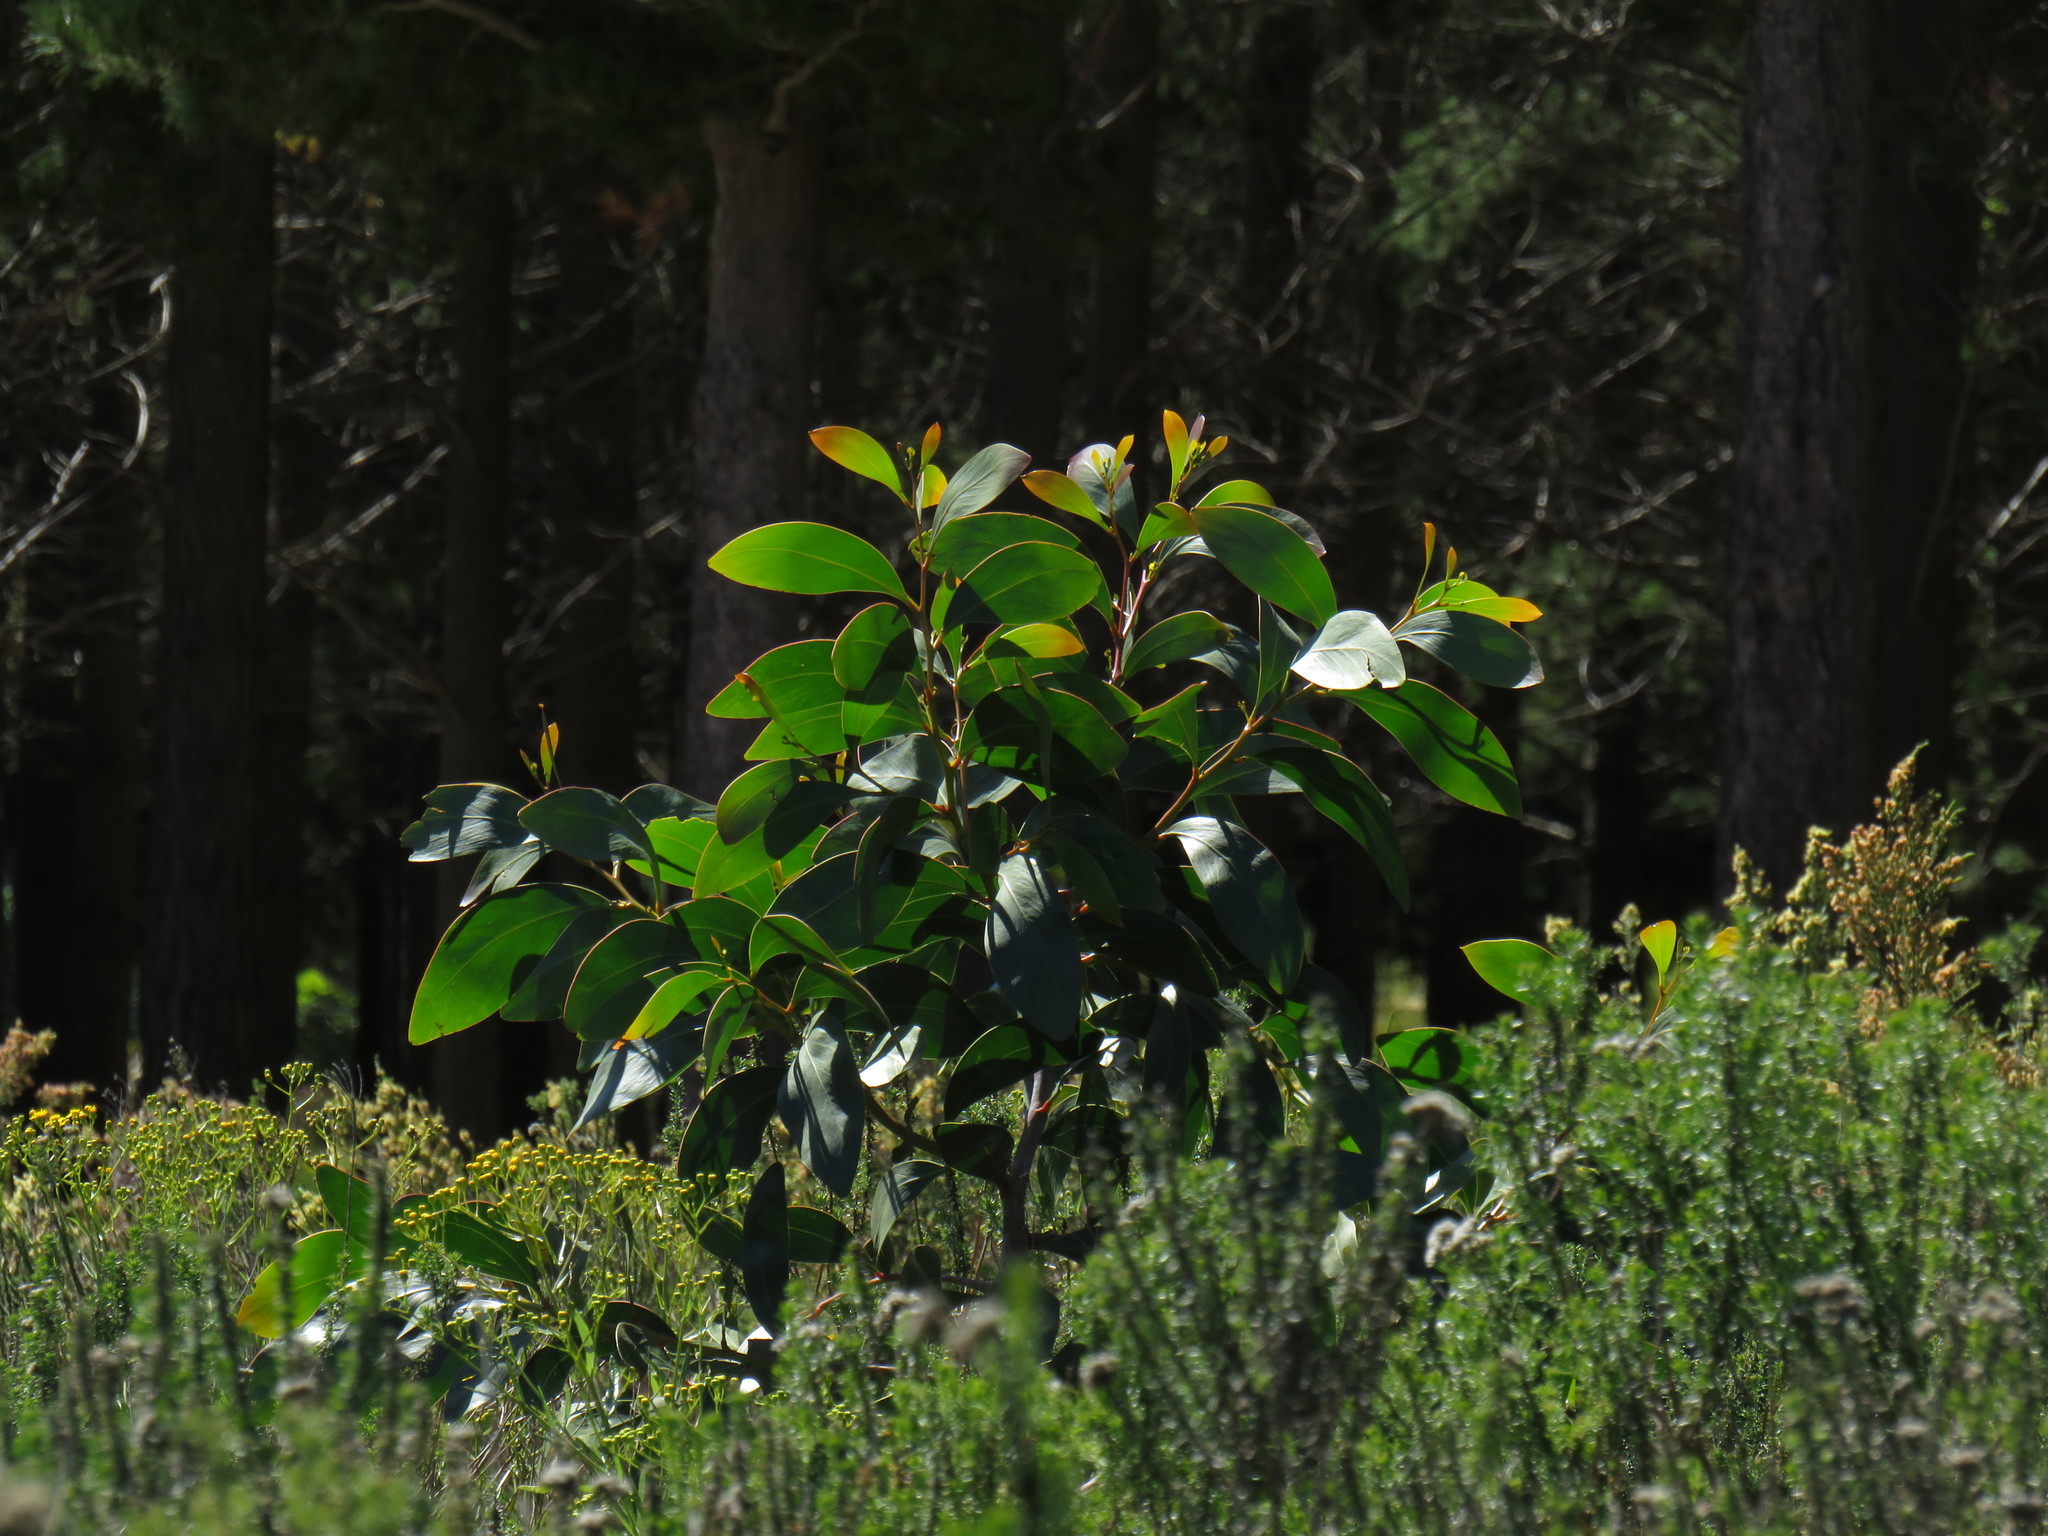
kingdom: Plantae
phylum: Tracheophyta
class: Magnoliopsida
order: Fabales
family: Fabaceae
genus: Acacia
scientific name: Acacia pycnantha
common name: Golden wattle
